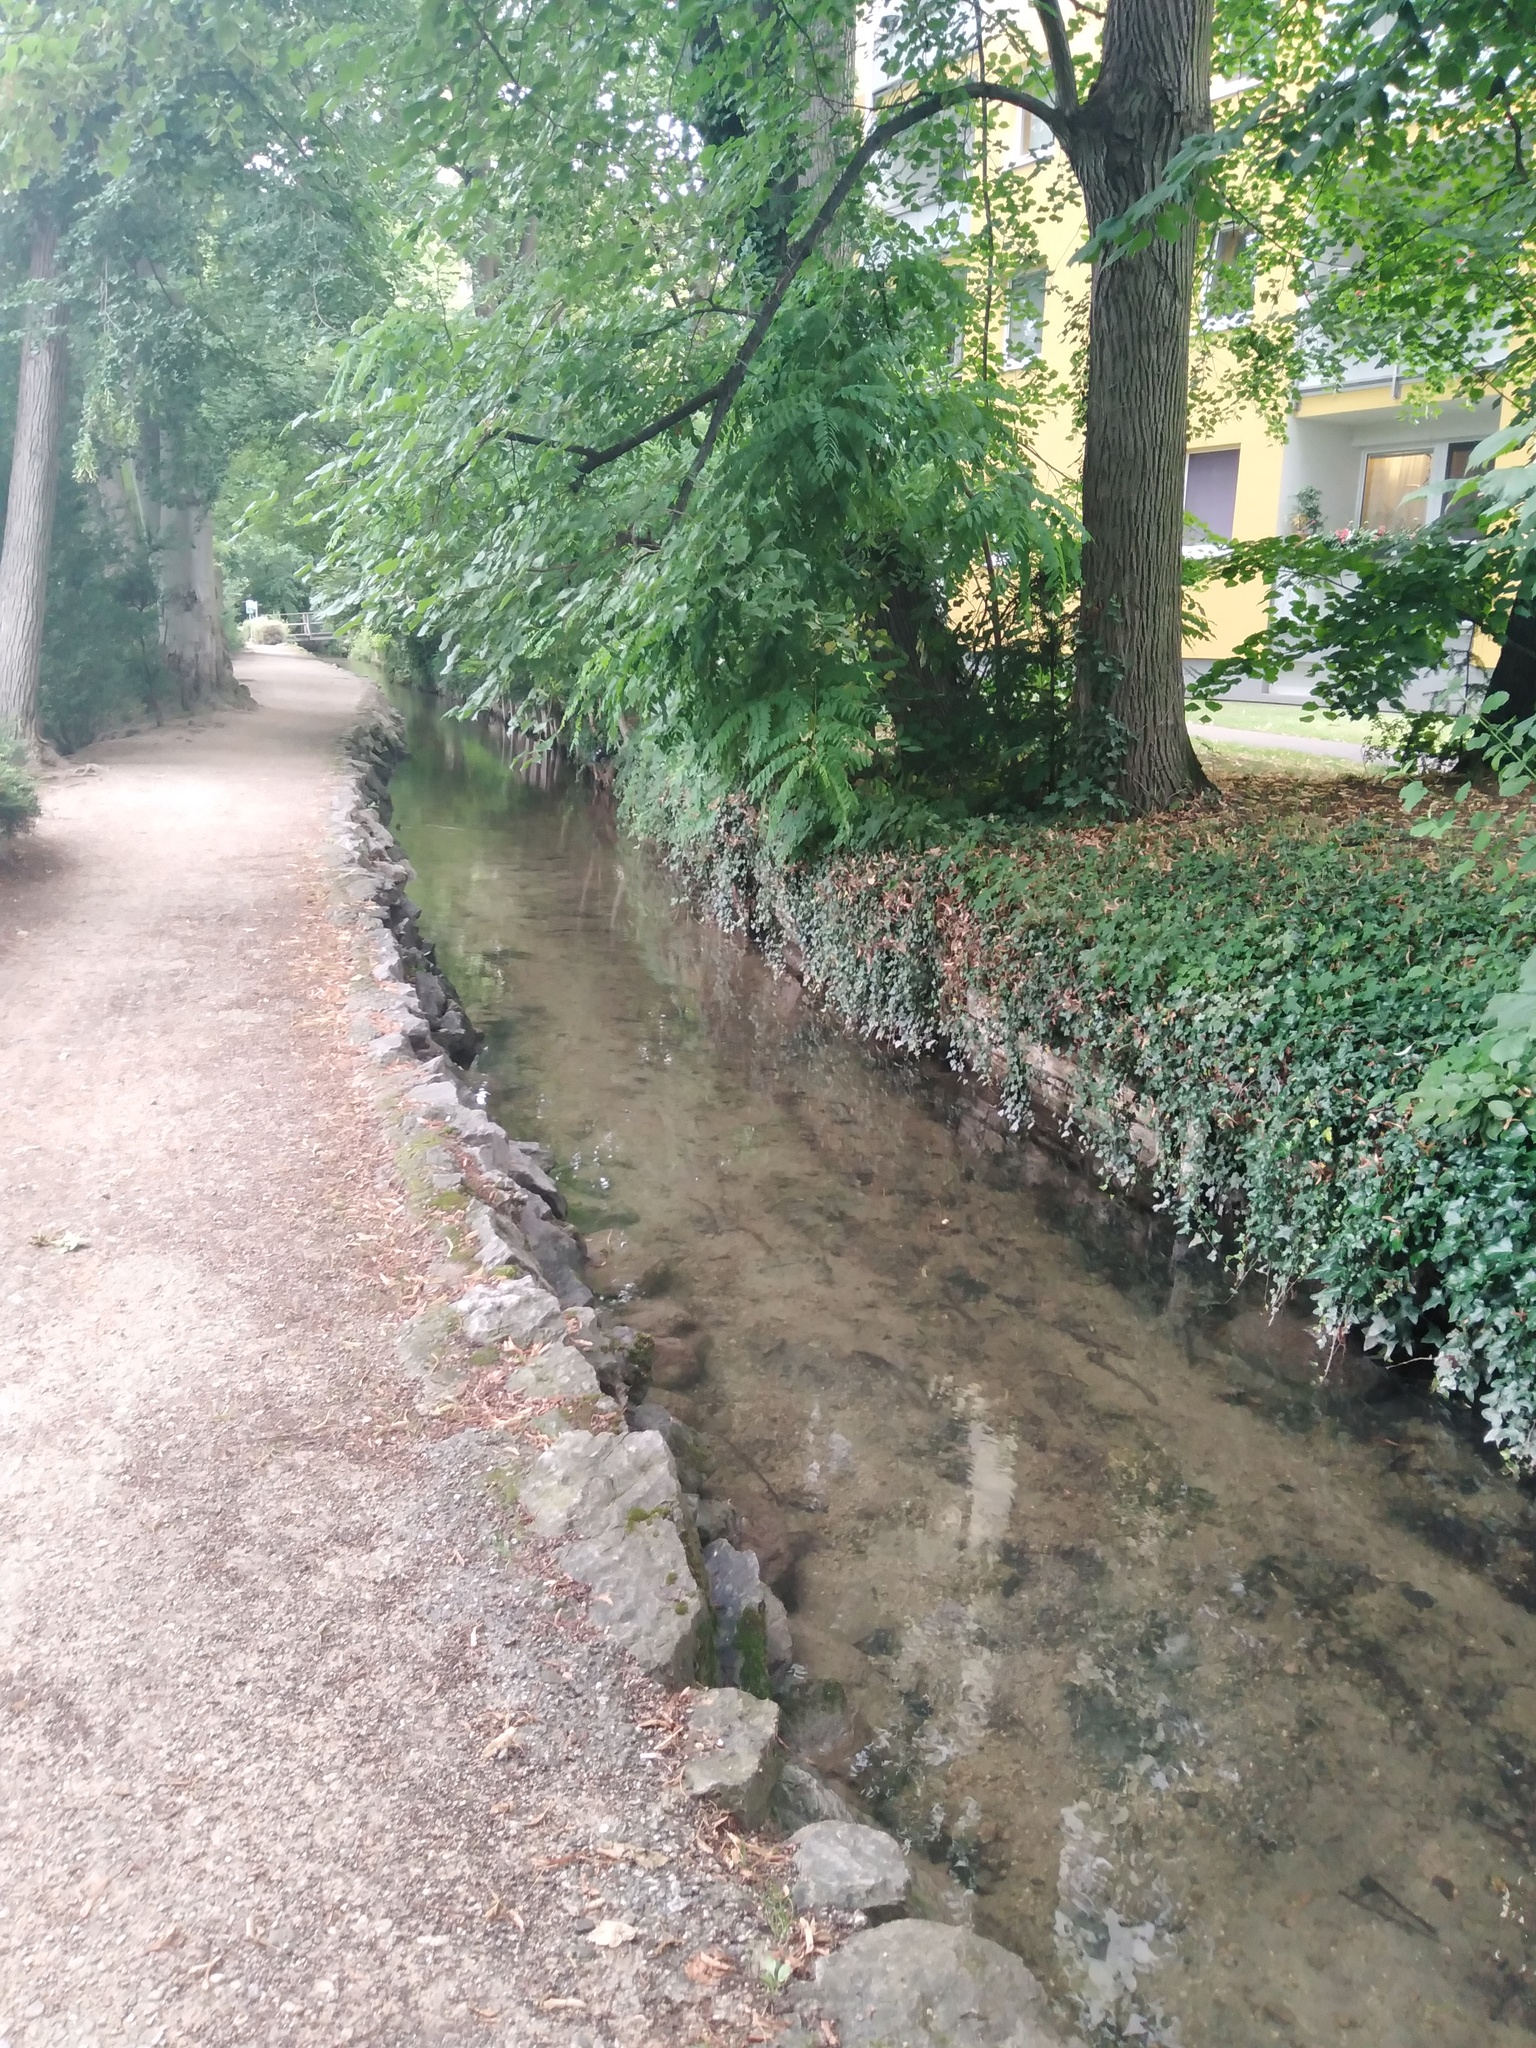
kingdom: Animalia
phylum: Arthropoda
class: Malacostraca
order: Decapoda
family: Astacidae
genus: Pacifastacus
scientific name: Pacifastacus leniusculus
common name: Signal crayfish
